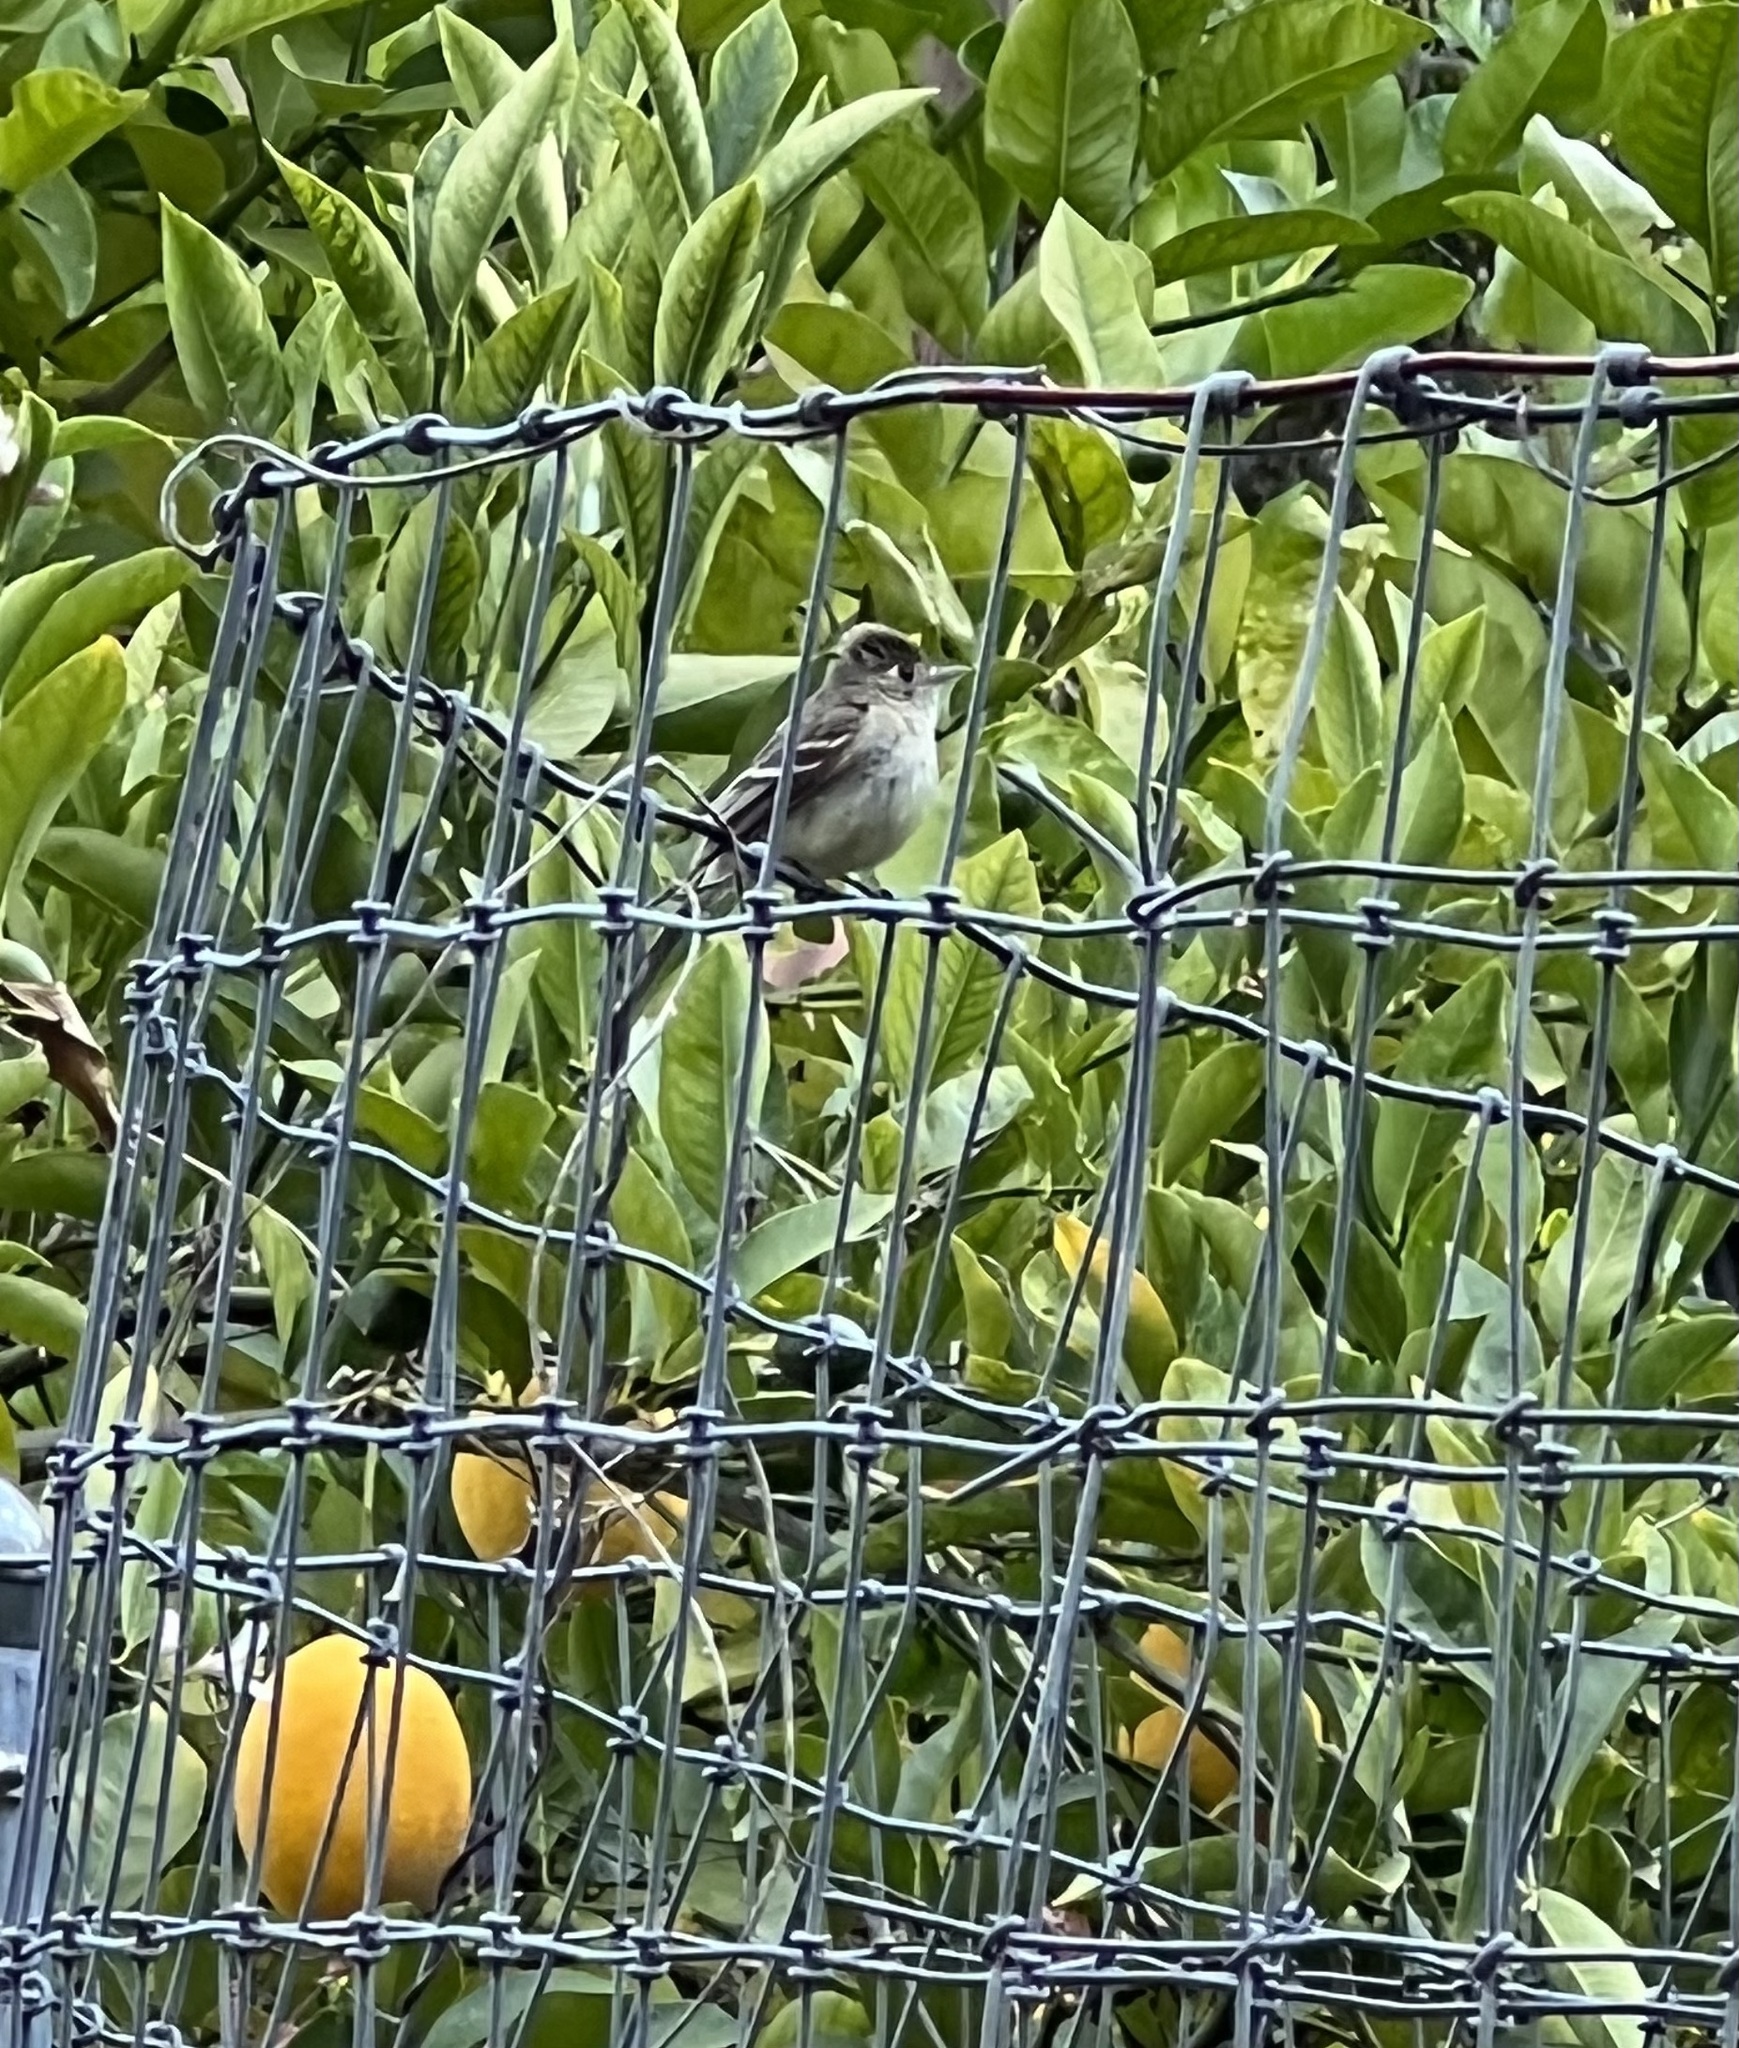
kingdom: Animalia
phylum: Chordata
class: Aves
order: Passeriformes
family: Tyrannidae
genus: Empidonax
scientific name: Empidonax difficilis
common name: Pacific-slope flycatcher
